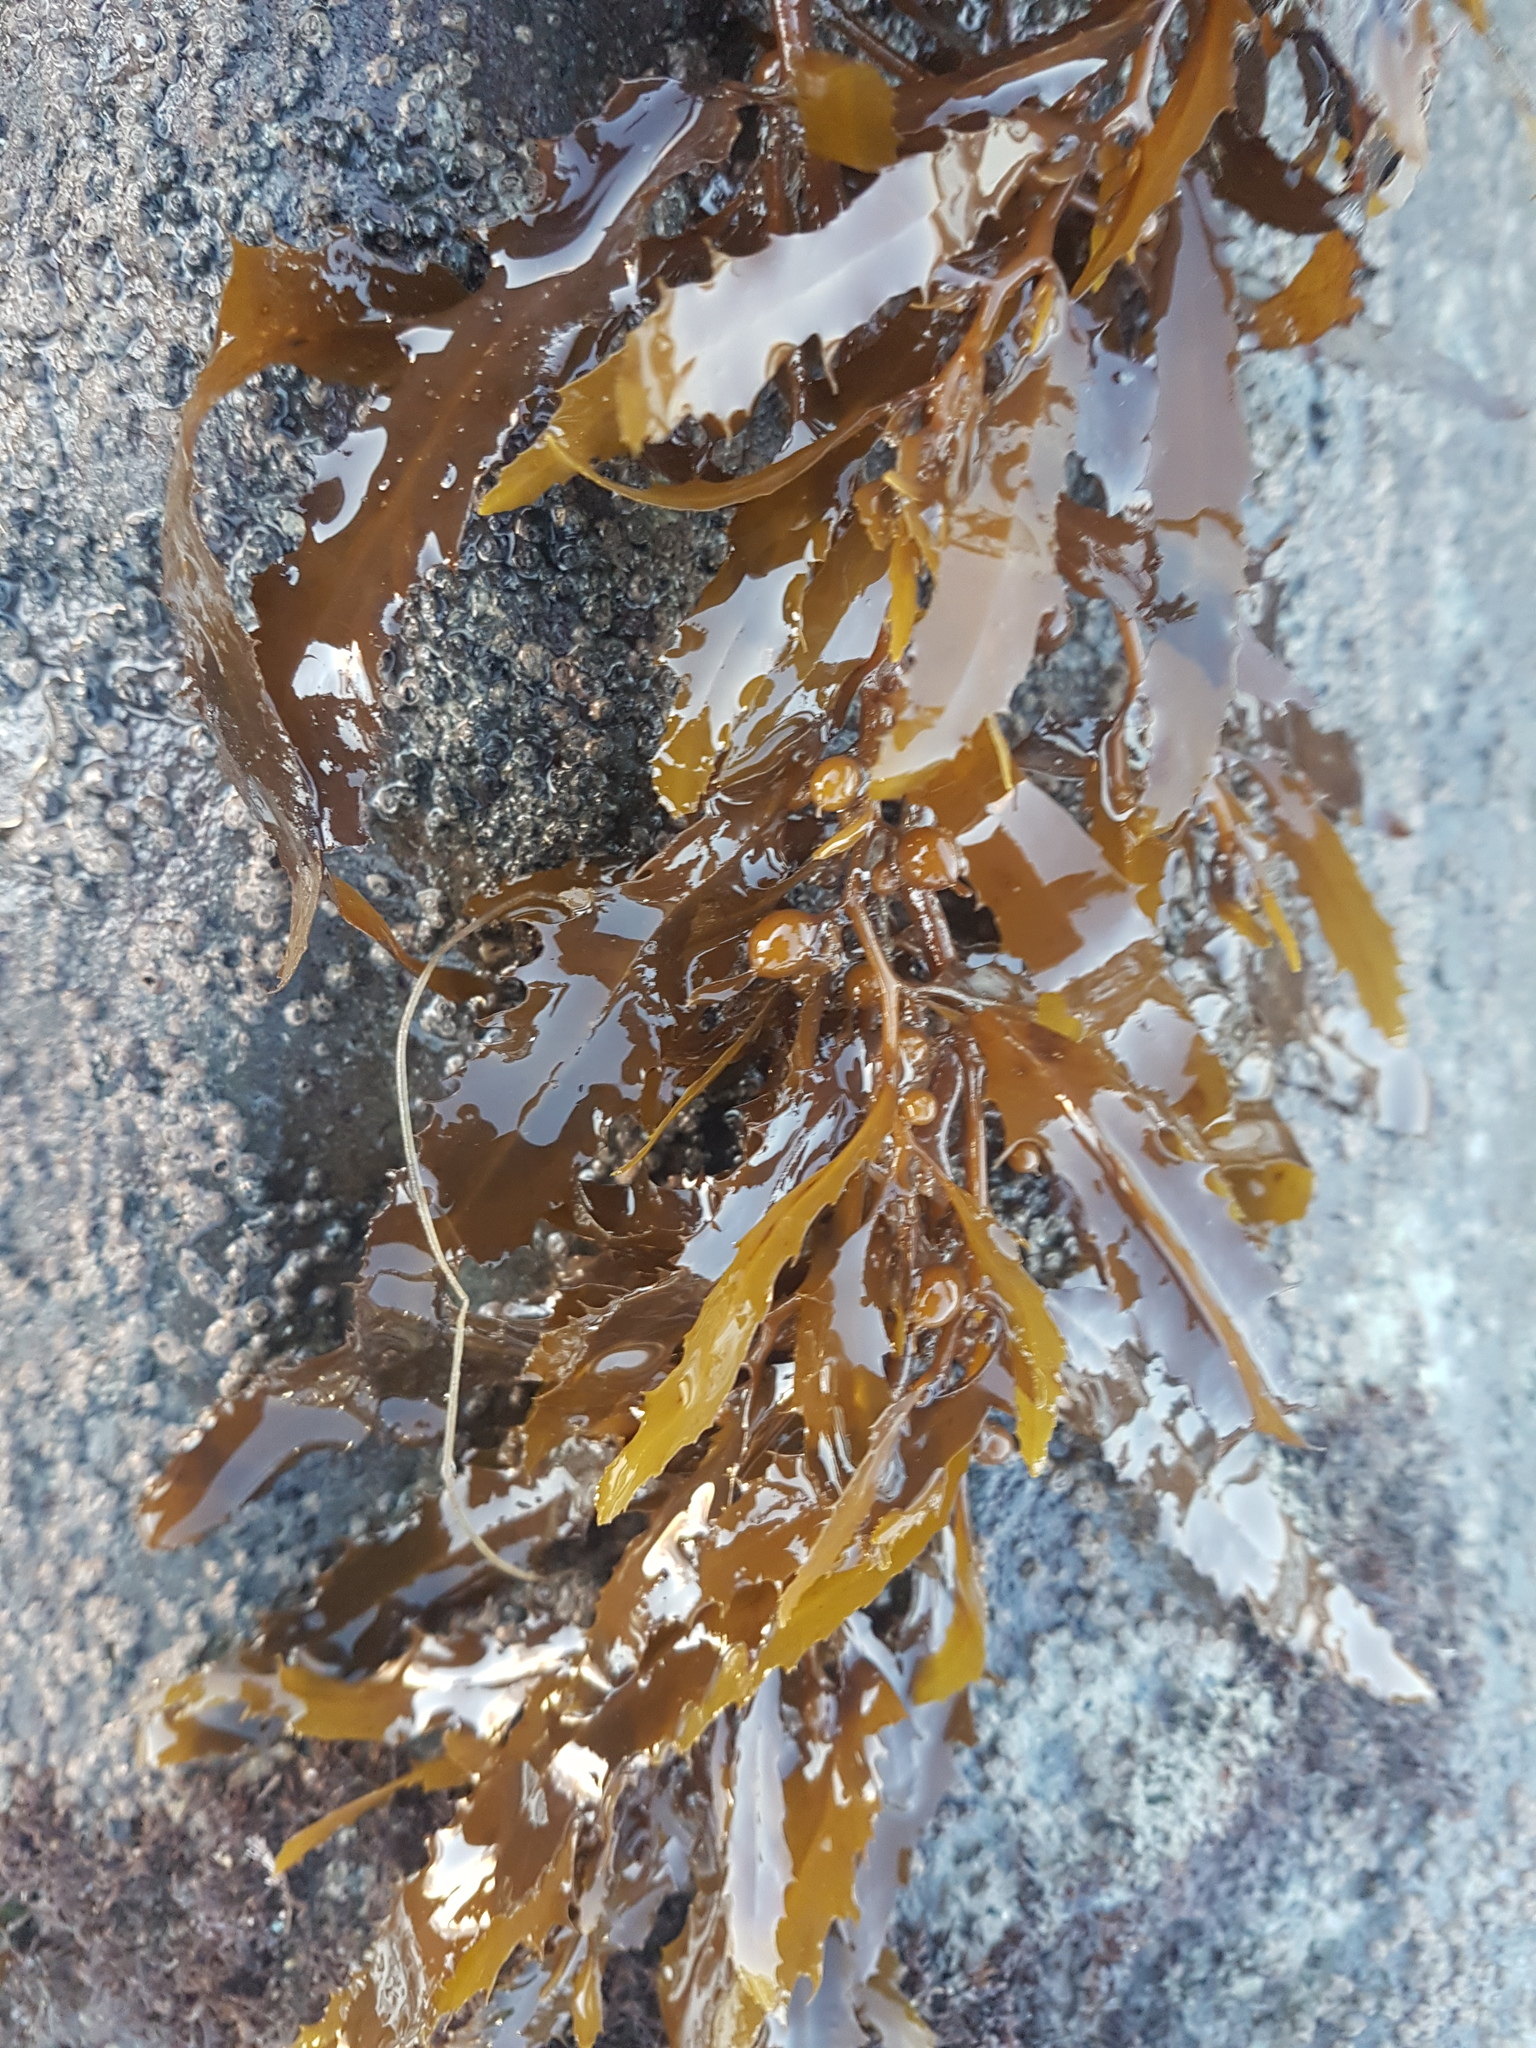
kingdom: Chromista
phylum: Ochrophyta
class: Phaeophyceae
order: Fucales
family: Sargassaceae
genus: Sargassum
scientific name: Sargassum sinclairii
